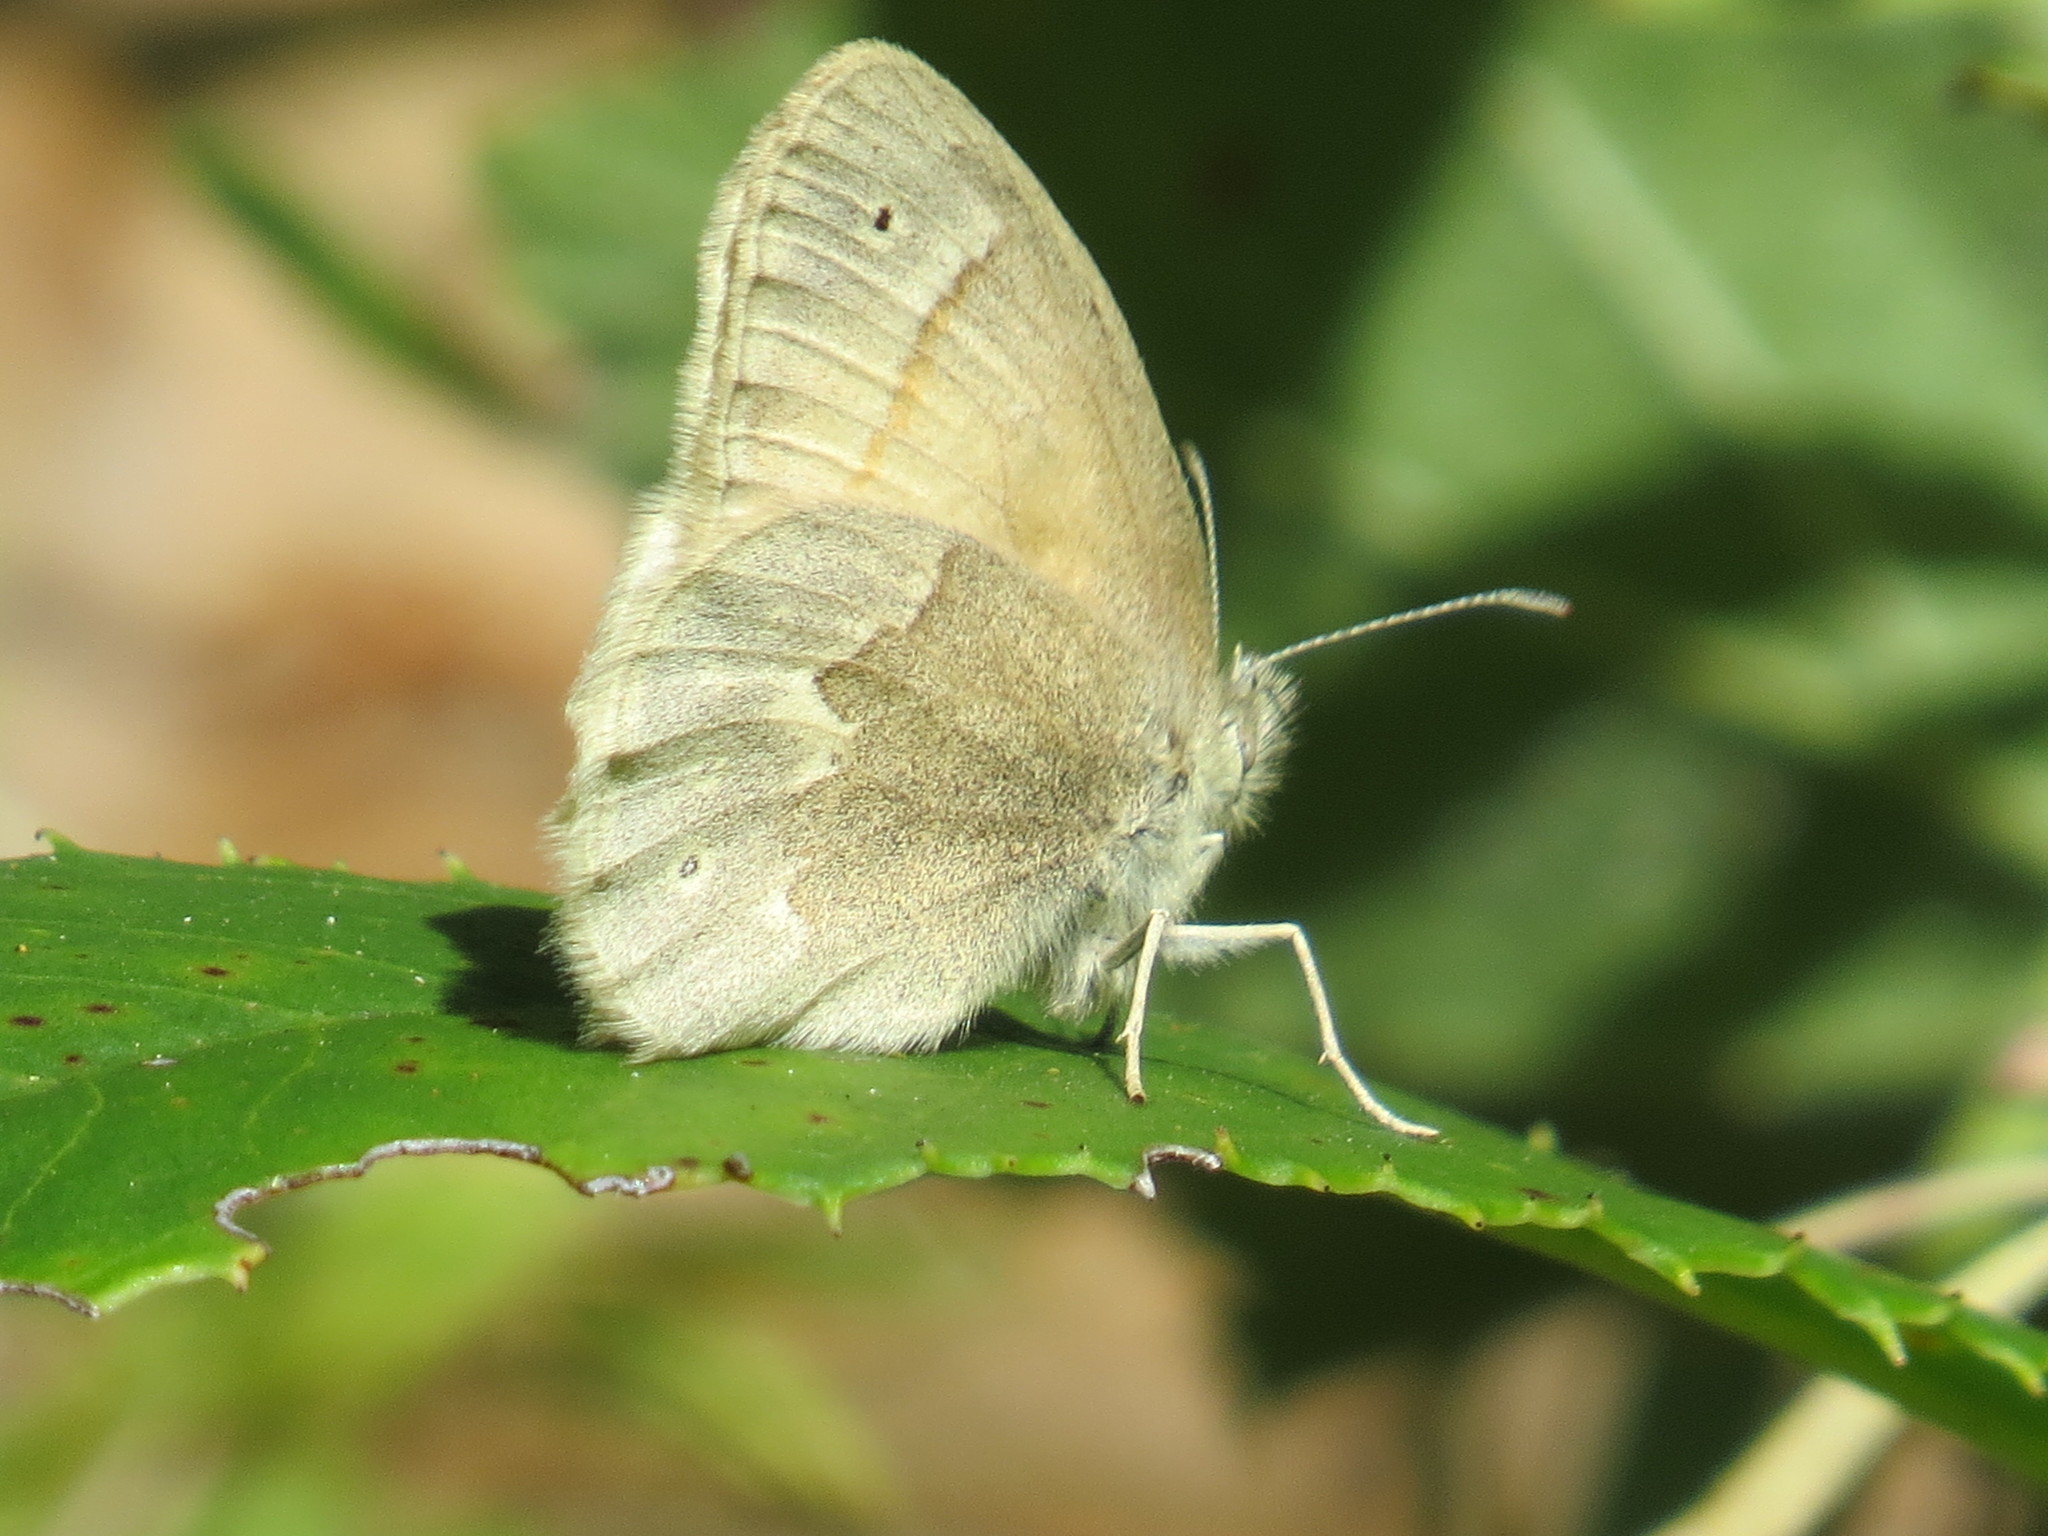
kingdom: Animalia
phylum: Arthropoda
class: Insecta
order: Lepidoptera
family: Nymphalidae
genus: Coenonympha
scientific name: Coenonympha california
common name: Common ringlet
